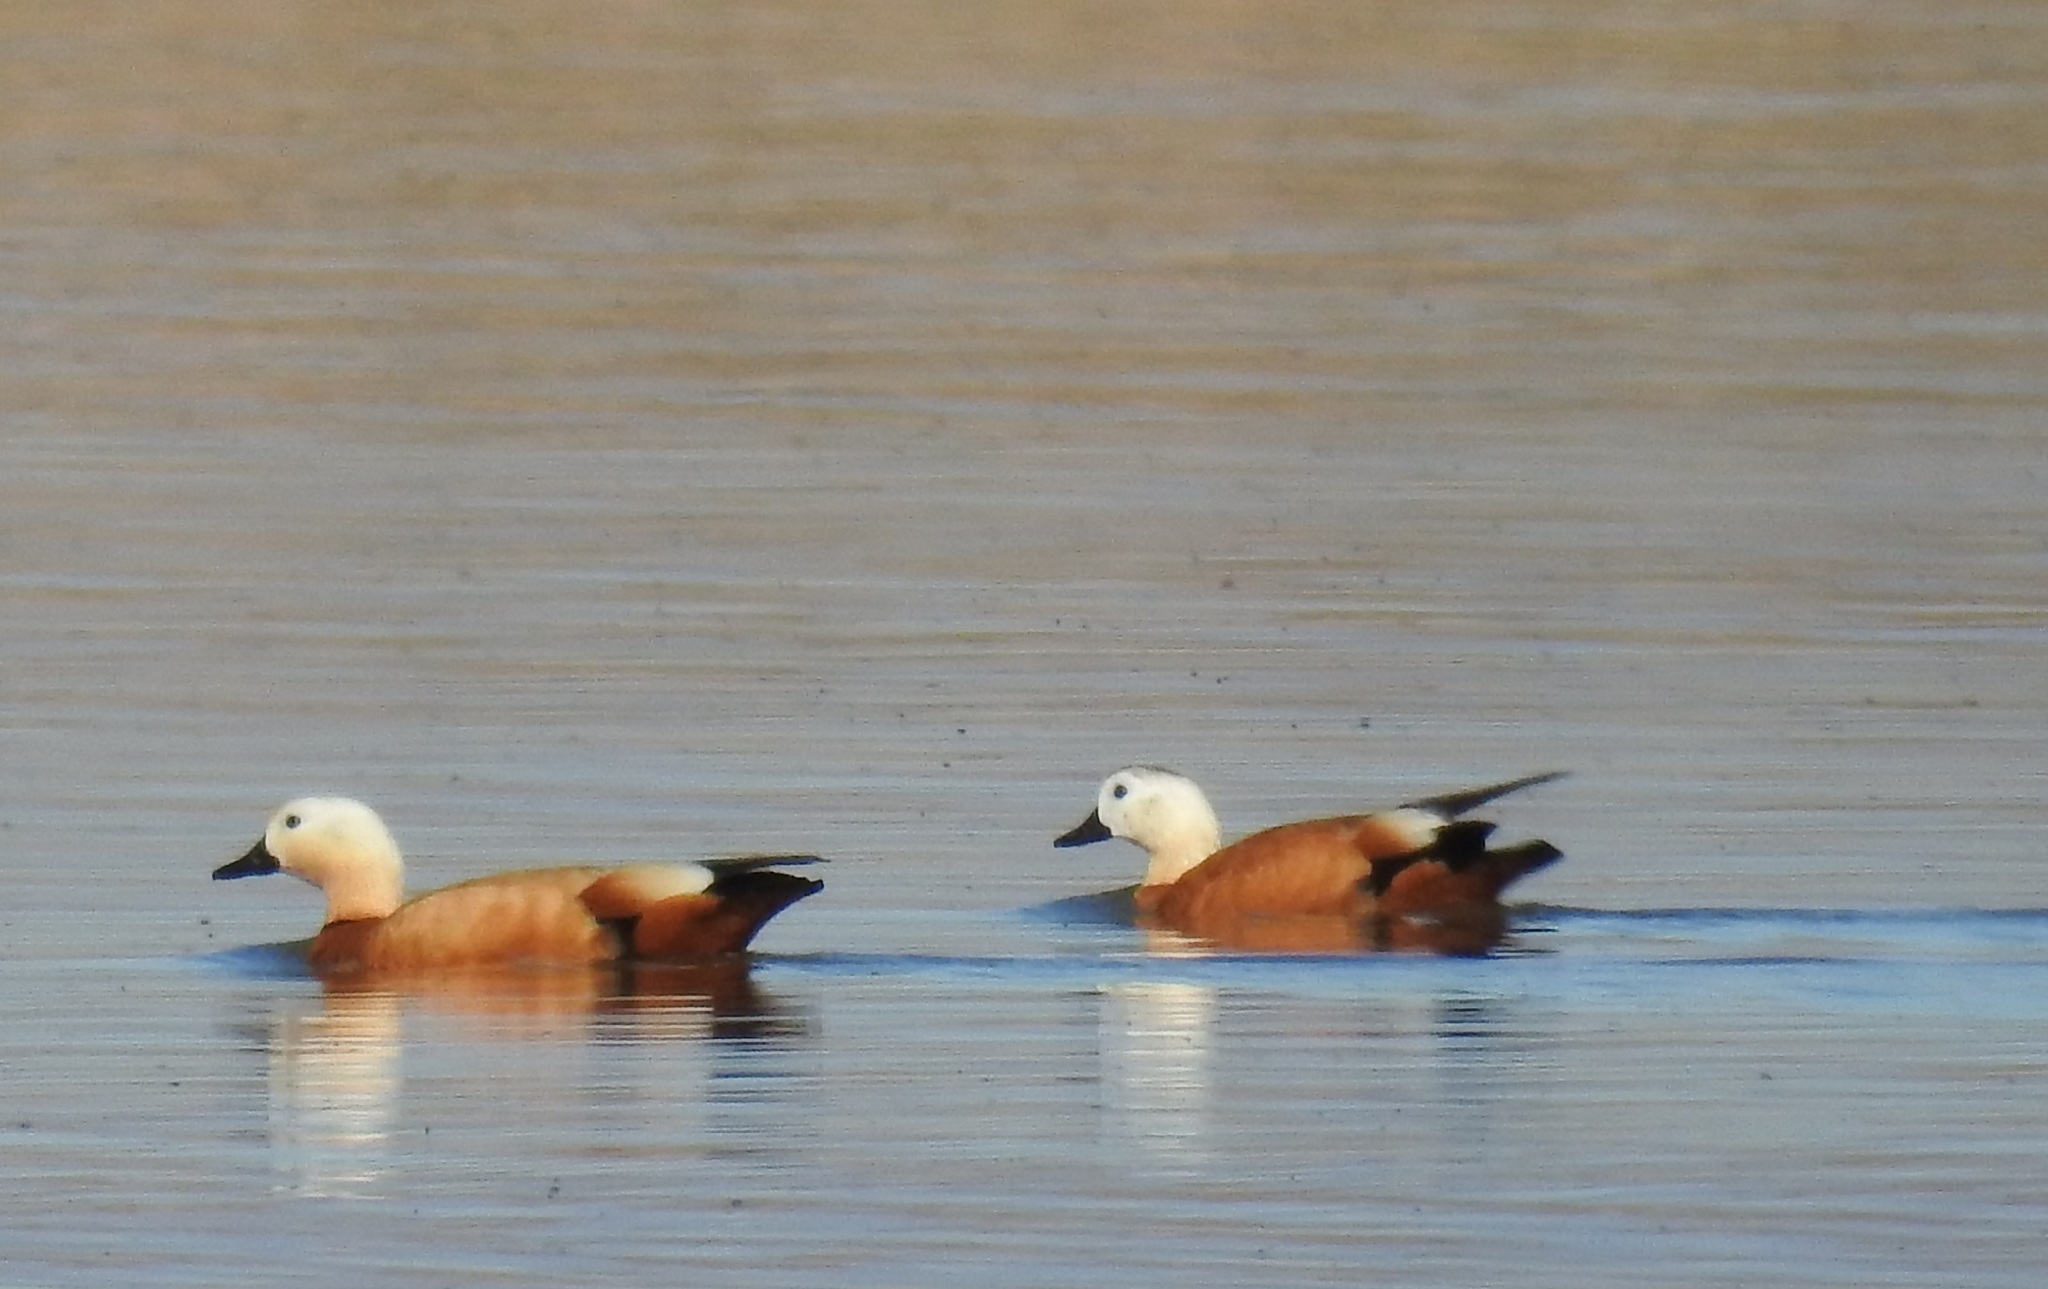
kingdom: Animalia
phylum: Chordata
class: Aves
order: Anseriformes
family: Anatidae
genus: Tadorna
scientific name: Tadorna ferruginea
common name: Ruddy shelduck
